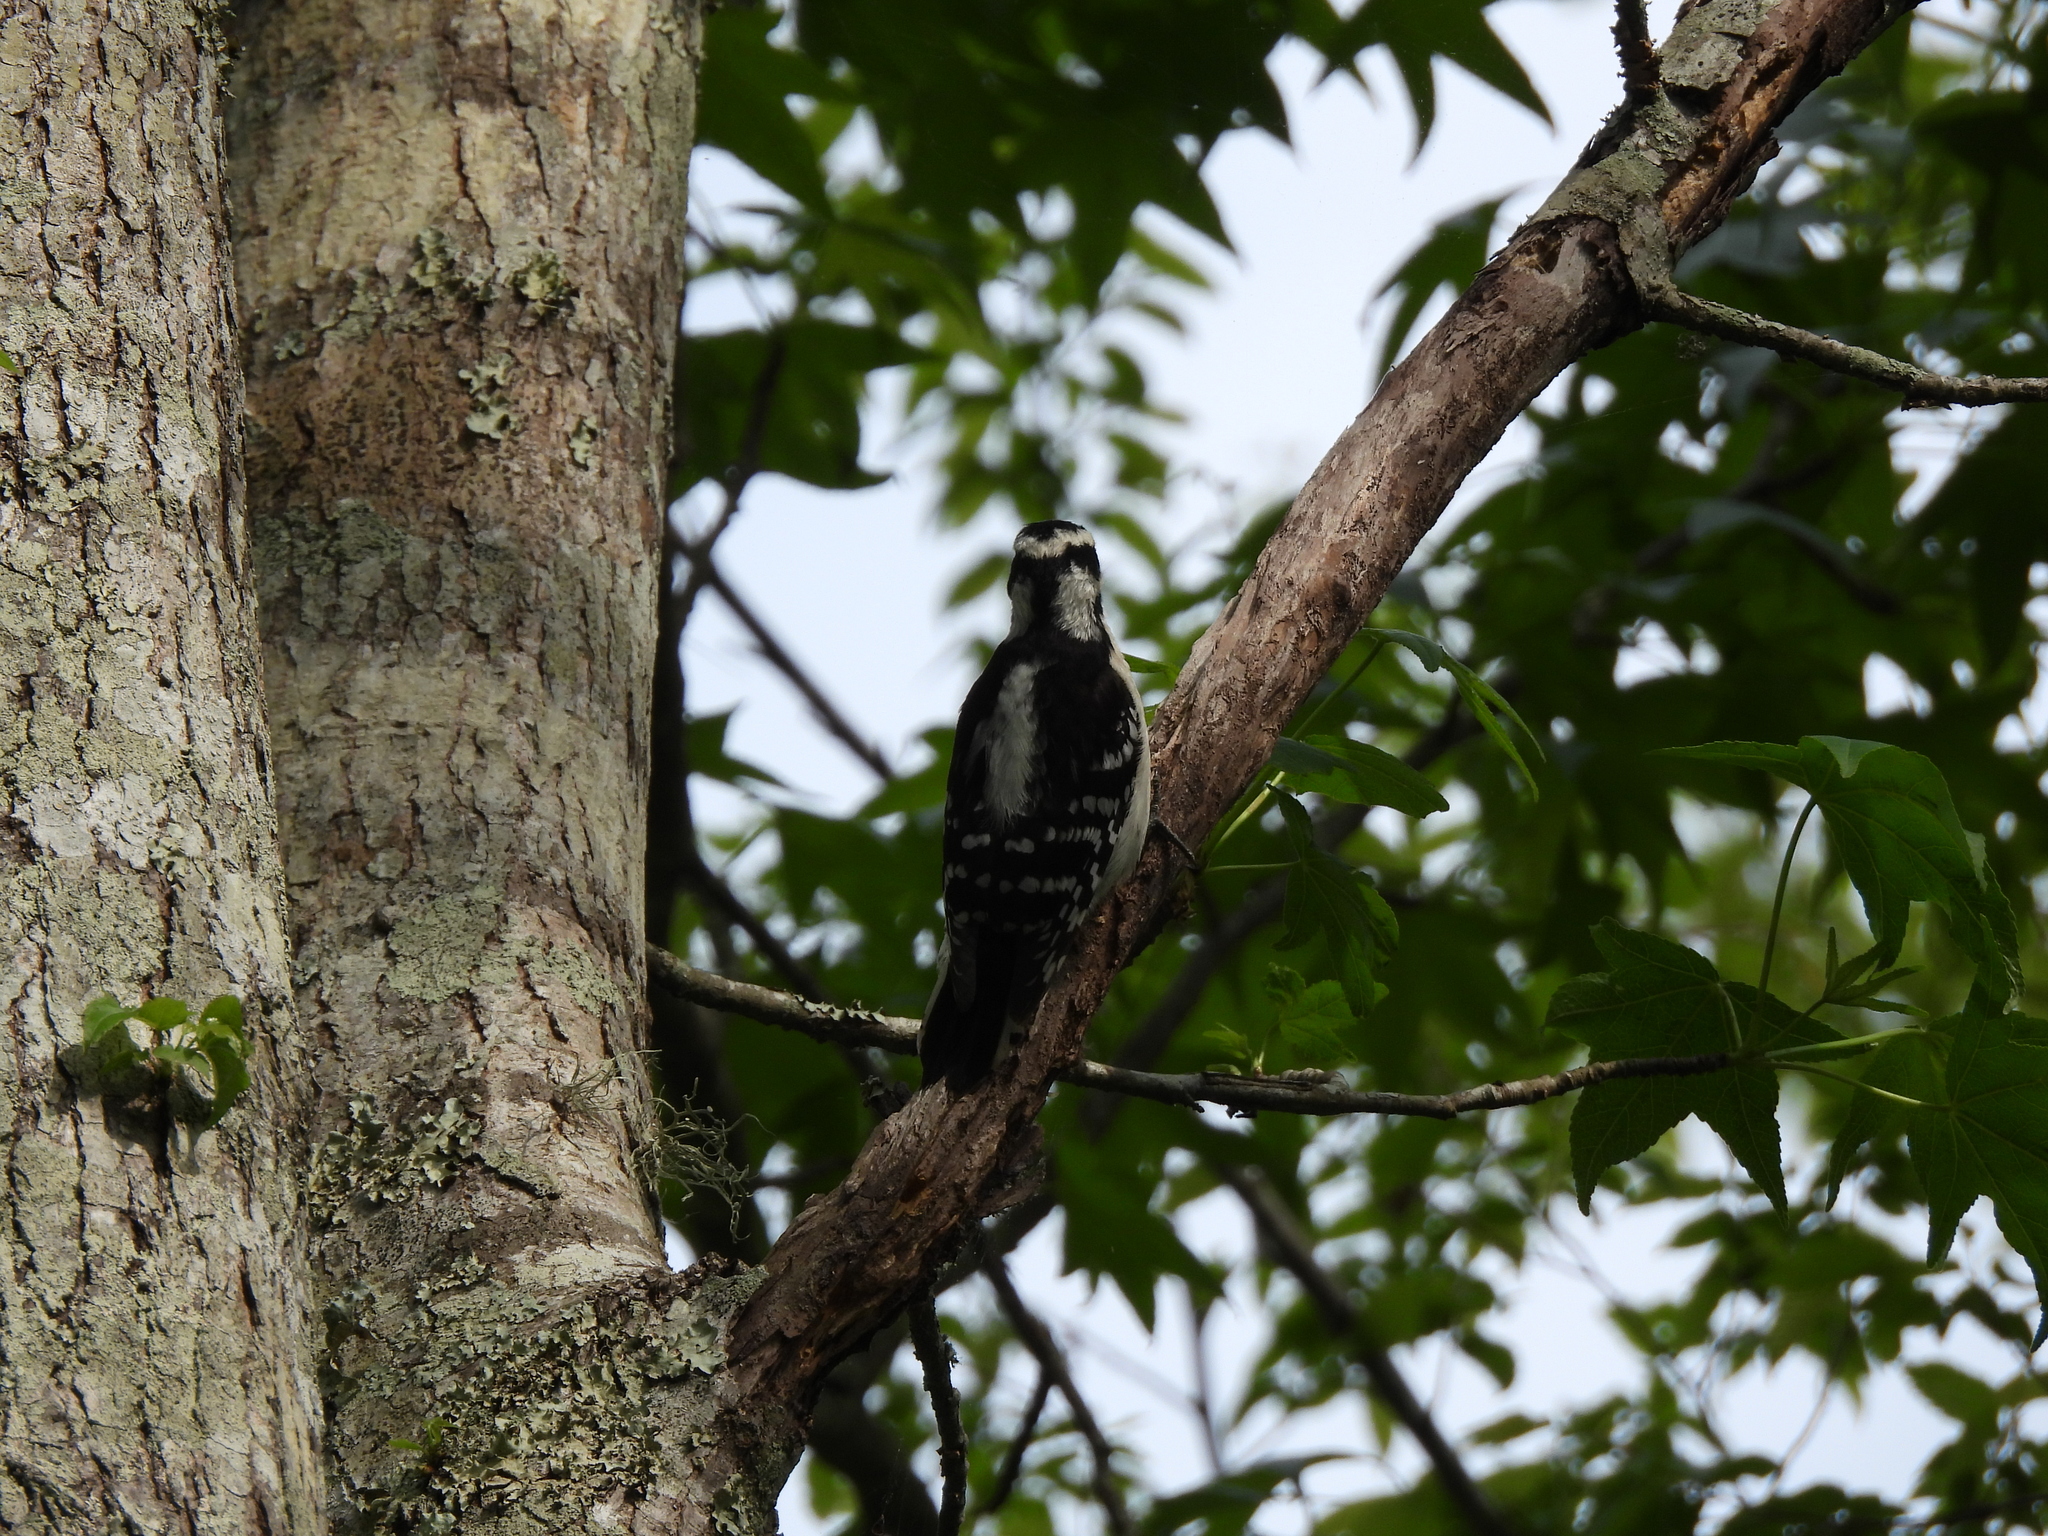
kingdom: Animalia
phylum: Chordata
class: Aves
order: Piciformes
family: Picidae
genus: Dryobates
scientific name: Dryobates pubescens
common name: Downy woodpecker
